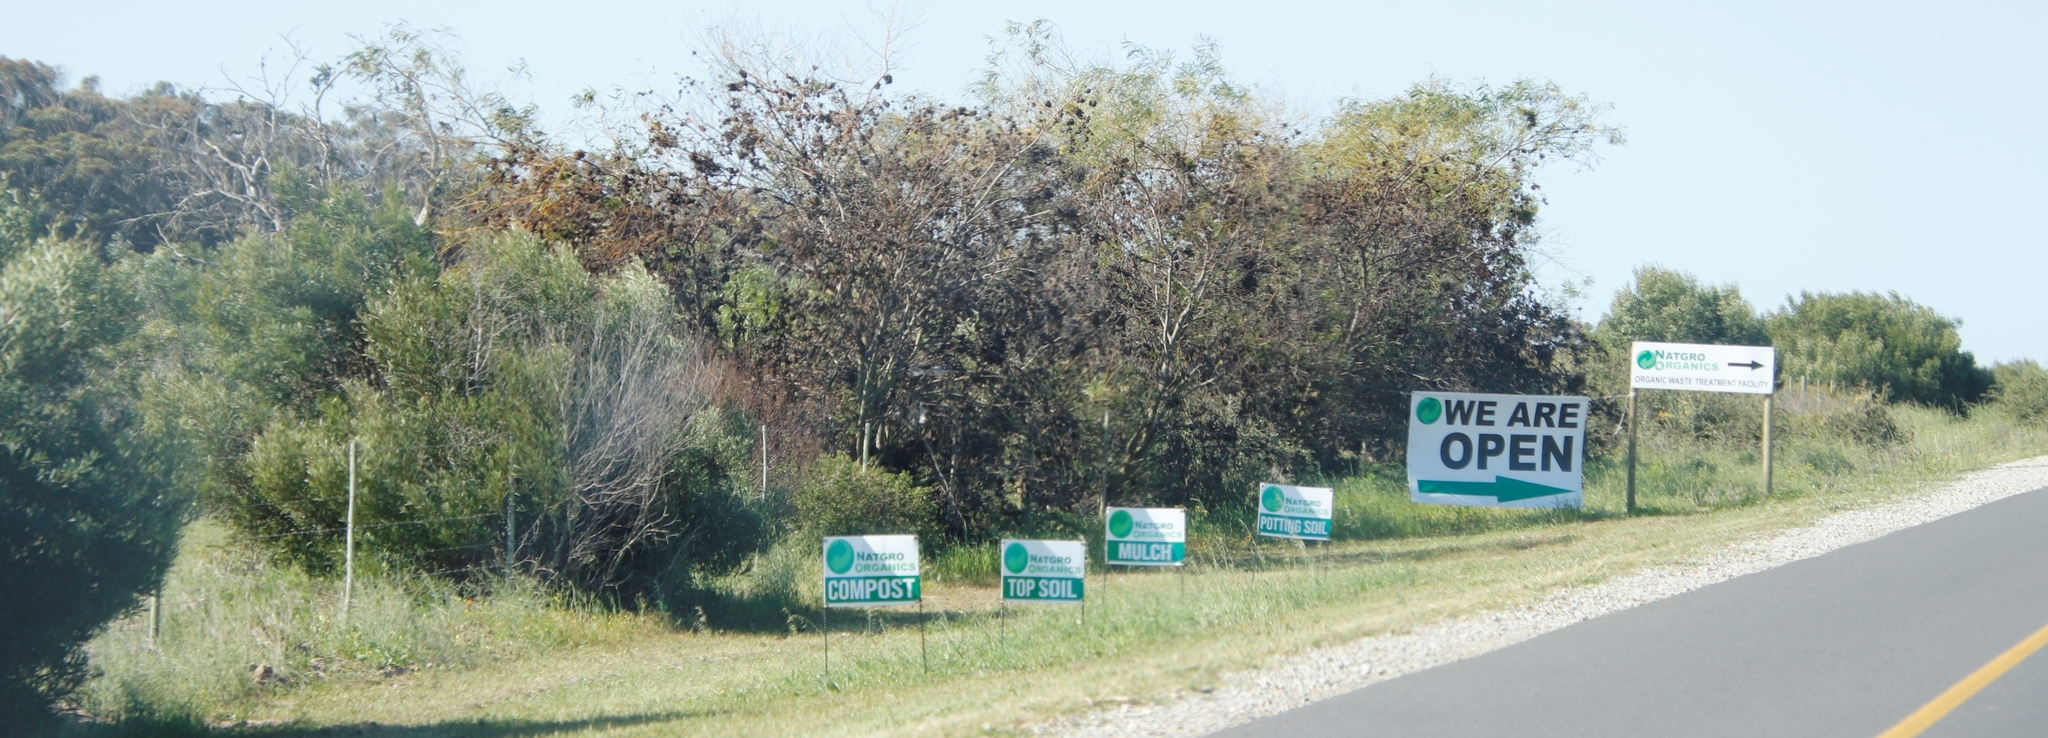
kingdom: Plantae
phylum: Tracheophyta
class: Magnoliopsida
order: Fabales
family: Fabaceae
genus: Acacia
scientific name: Acacia saligna
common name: Orange wattle
